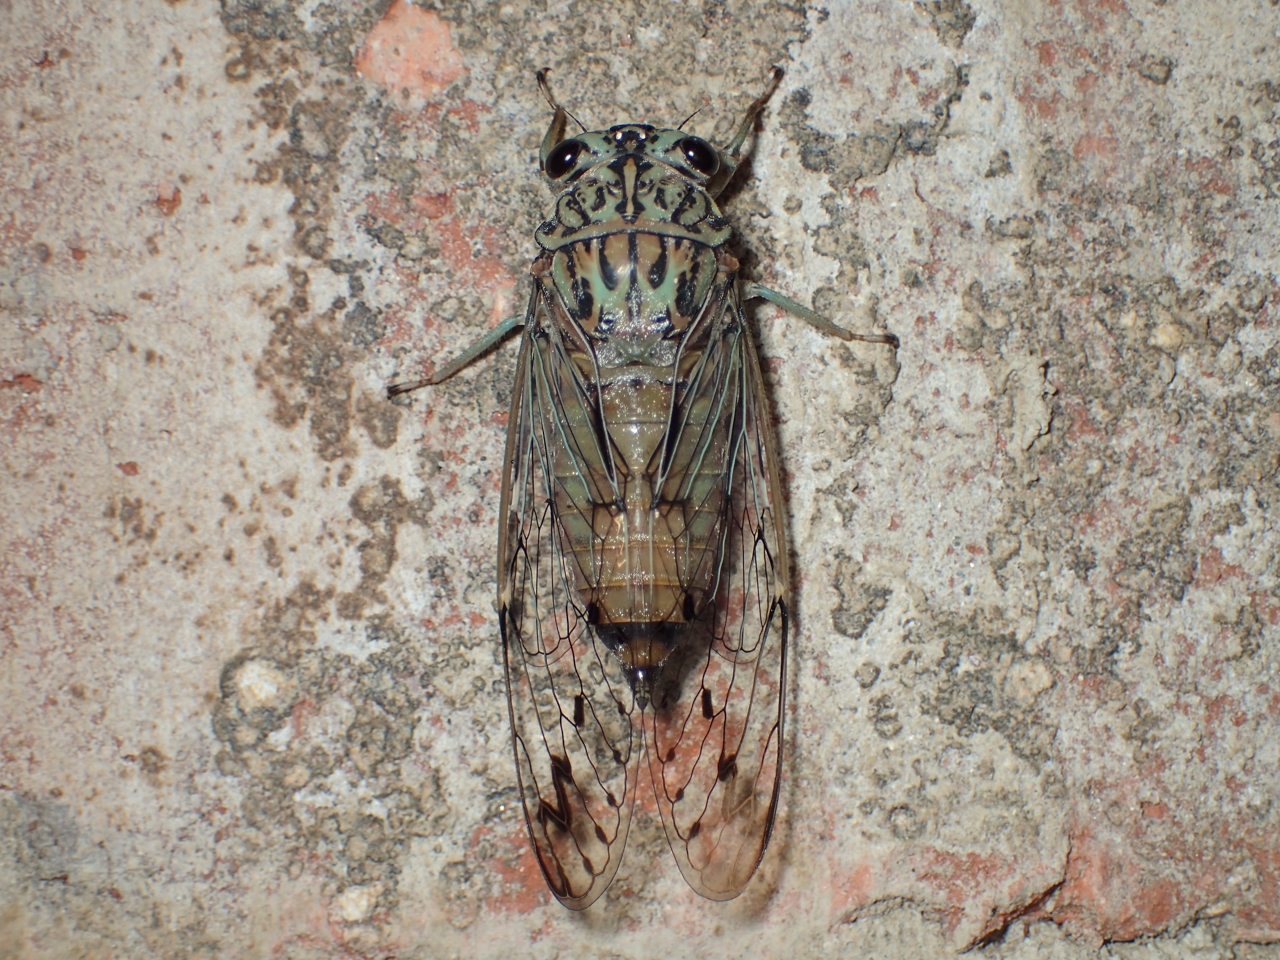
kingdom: Animalia
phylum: Arthropoda
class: Insecta
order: Hemiptera
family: Cicadidae
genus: Neocicada
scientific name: Neocicada hieroglyphica
